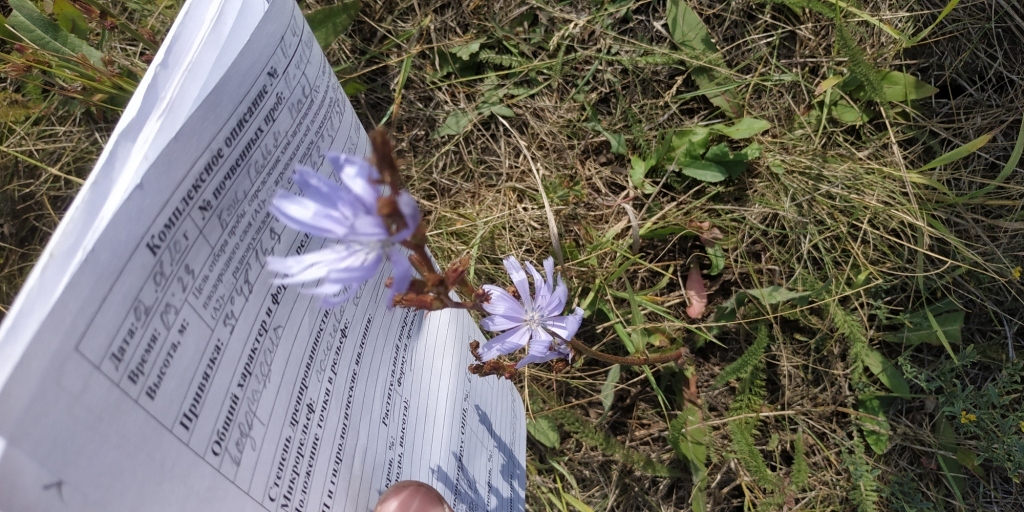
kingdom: Plantae
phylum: Tracheophyta
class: Magnoliopsida
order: Asterales
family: Asteraceae
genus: Cichorium
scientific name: Cichorium intybus
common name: Chicory
